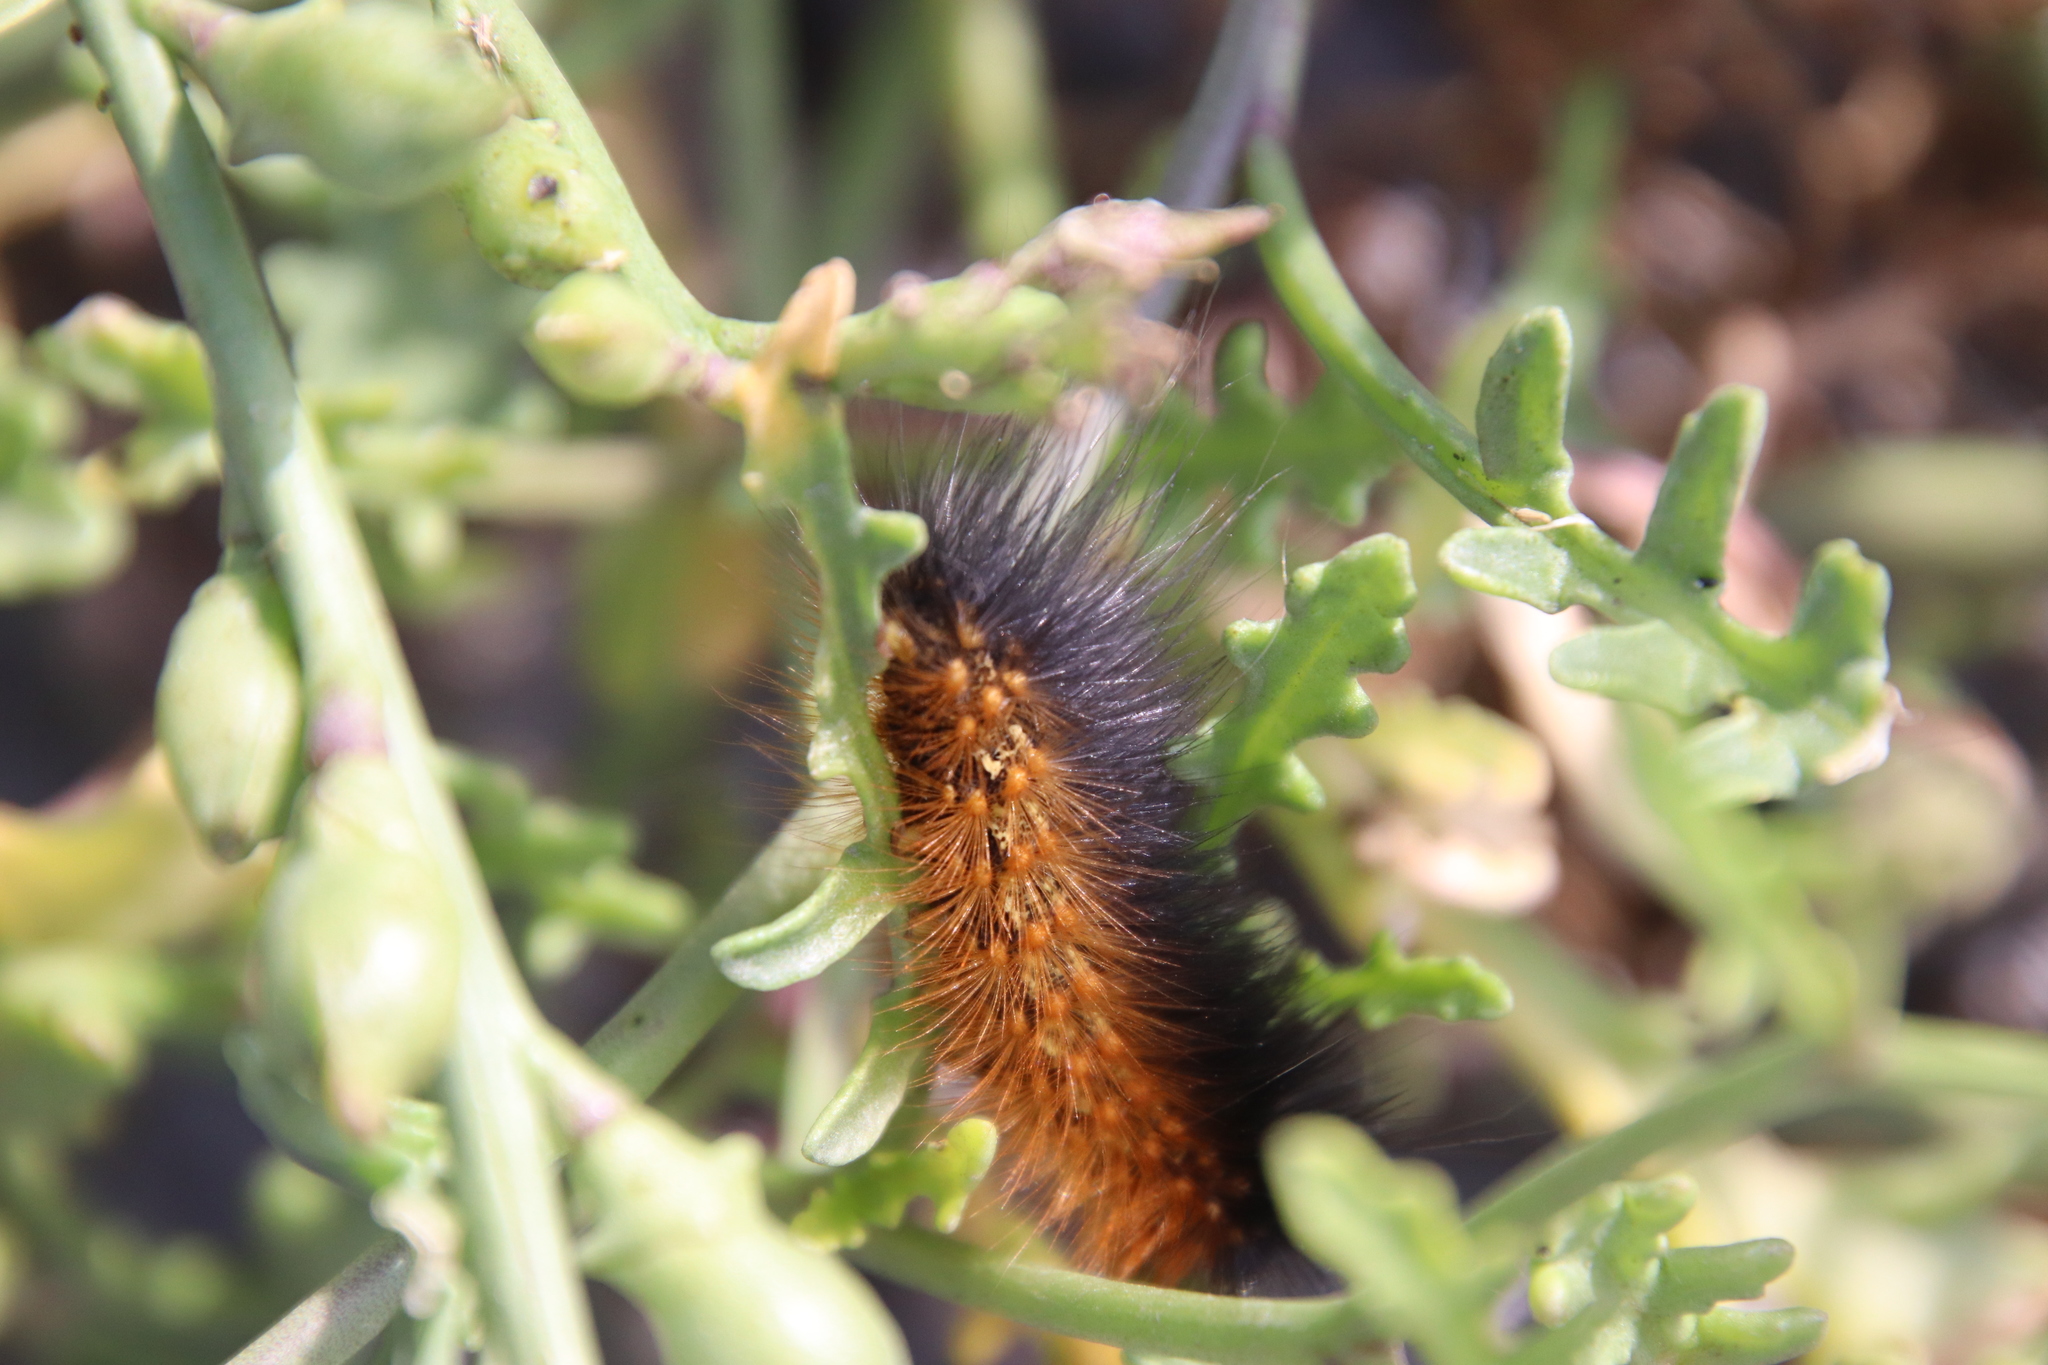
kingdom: Animalia
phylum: Arthropoda
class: Insecta
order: Lepidoptera
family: Erebidae
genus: Estigmene
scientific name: Estigmene acrea
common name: Salt marsh moth
